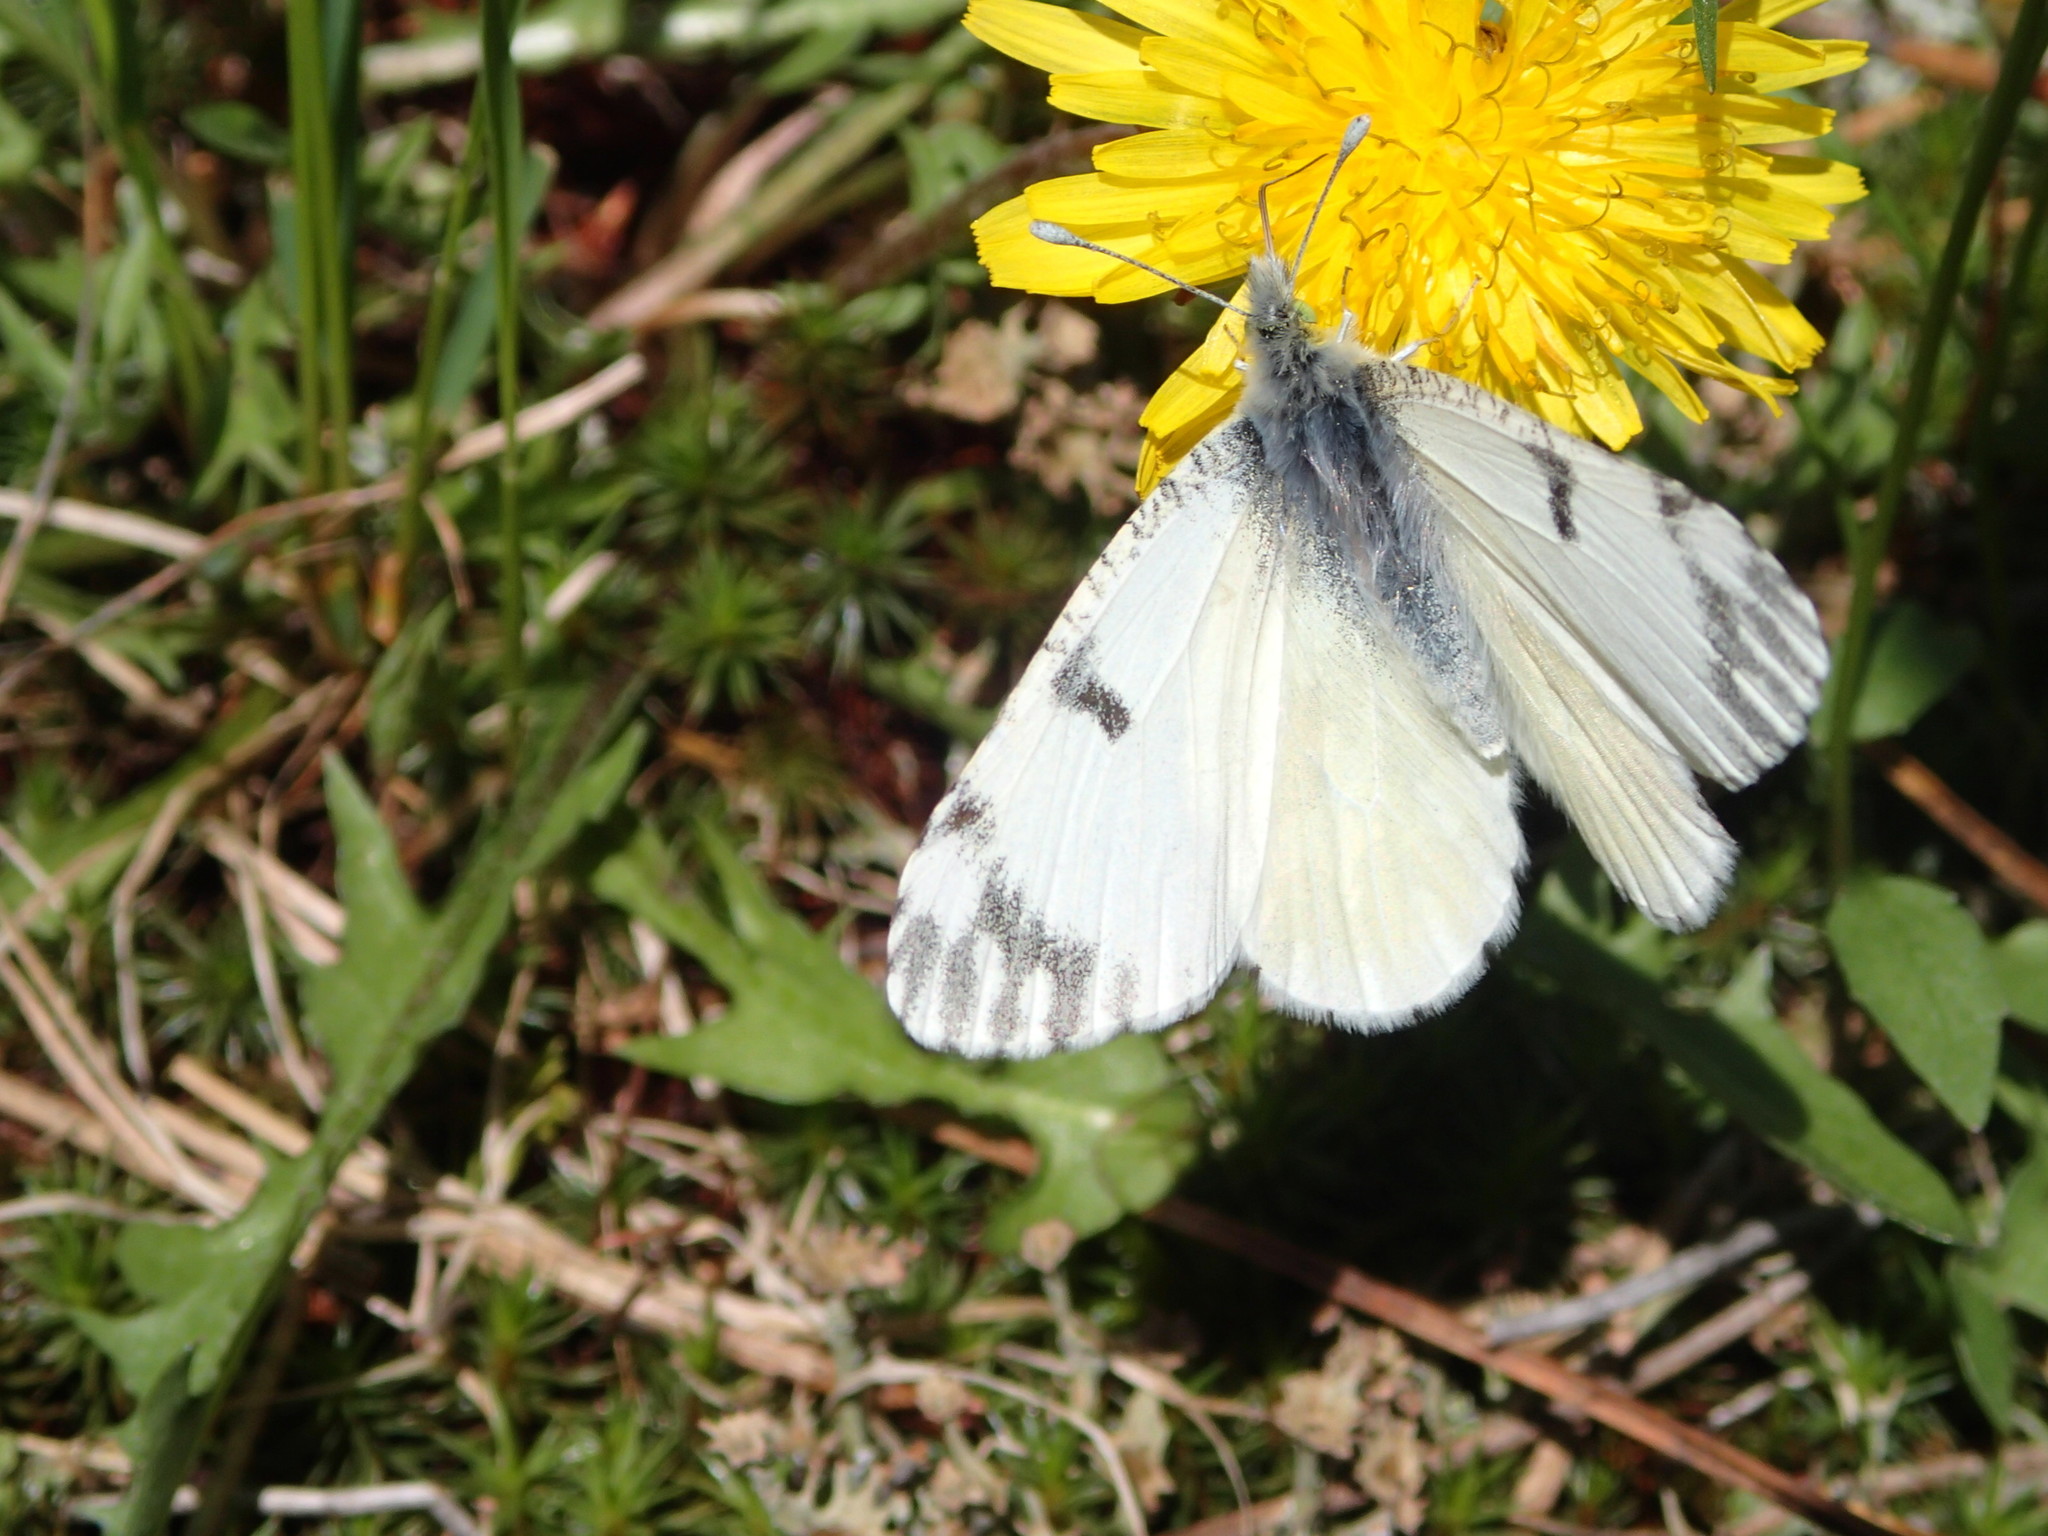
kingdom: Animalia
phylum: Arthropoda
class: Insecta
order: Lepidoptera
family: Pieridae
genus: Euchloe
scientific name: Euchloe ausonides
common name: Creamy marblewing
